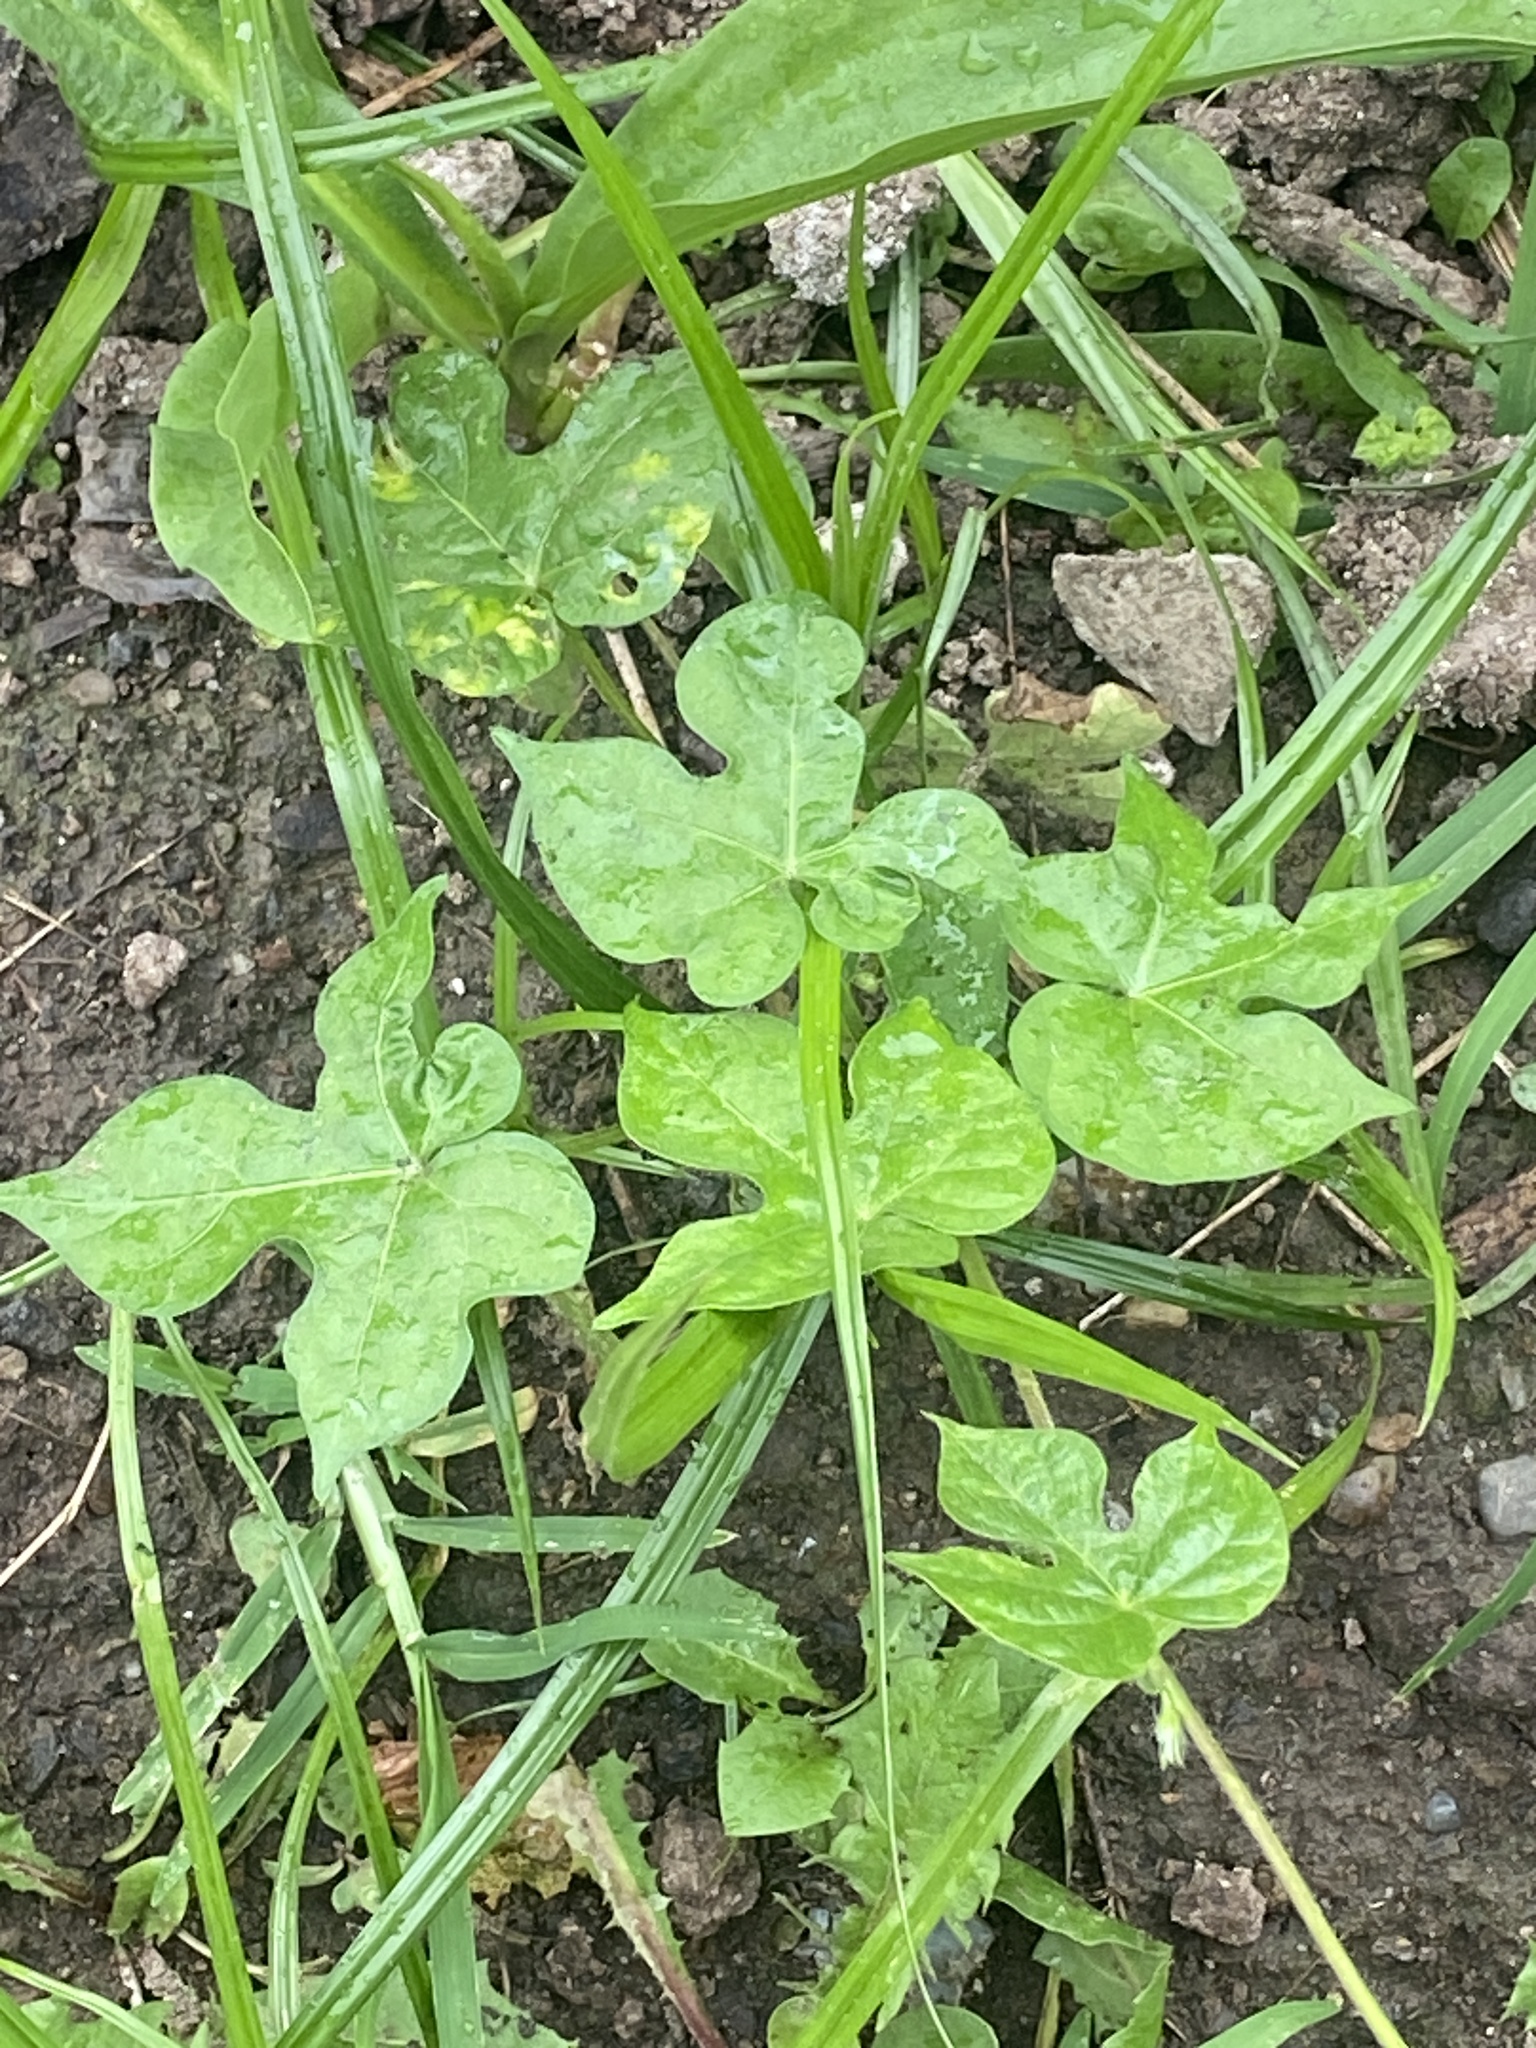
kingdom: Plantae
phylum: Tracheophyta
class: Magnoliopsida
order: Solanales
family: Convolvulaceae
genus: Ipomoea
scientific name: Ipomoea hederacea
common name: Ivy-leaved morning-glory
